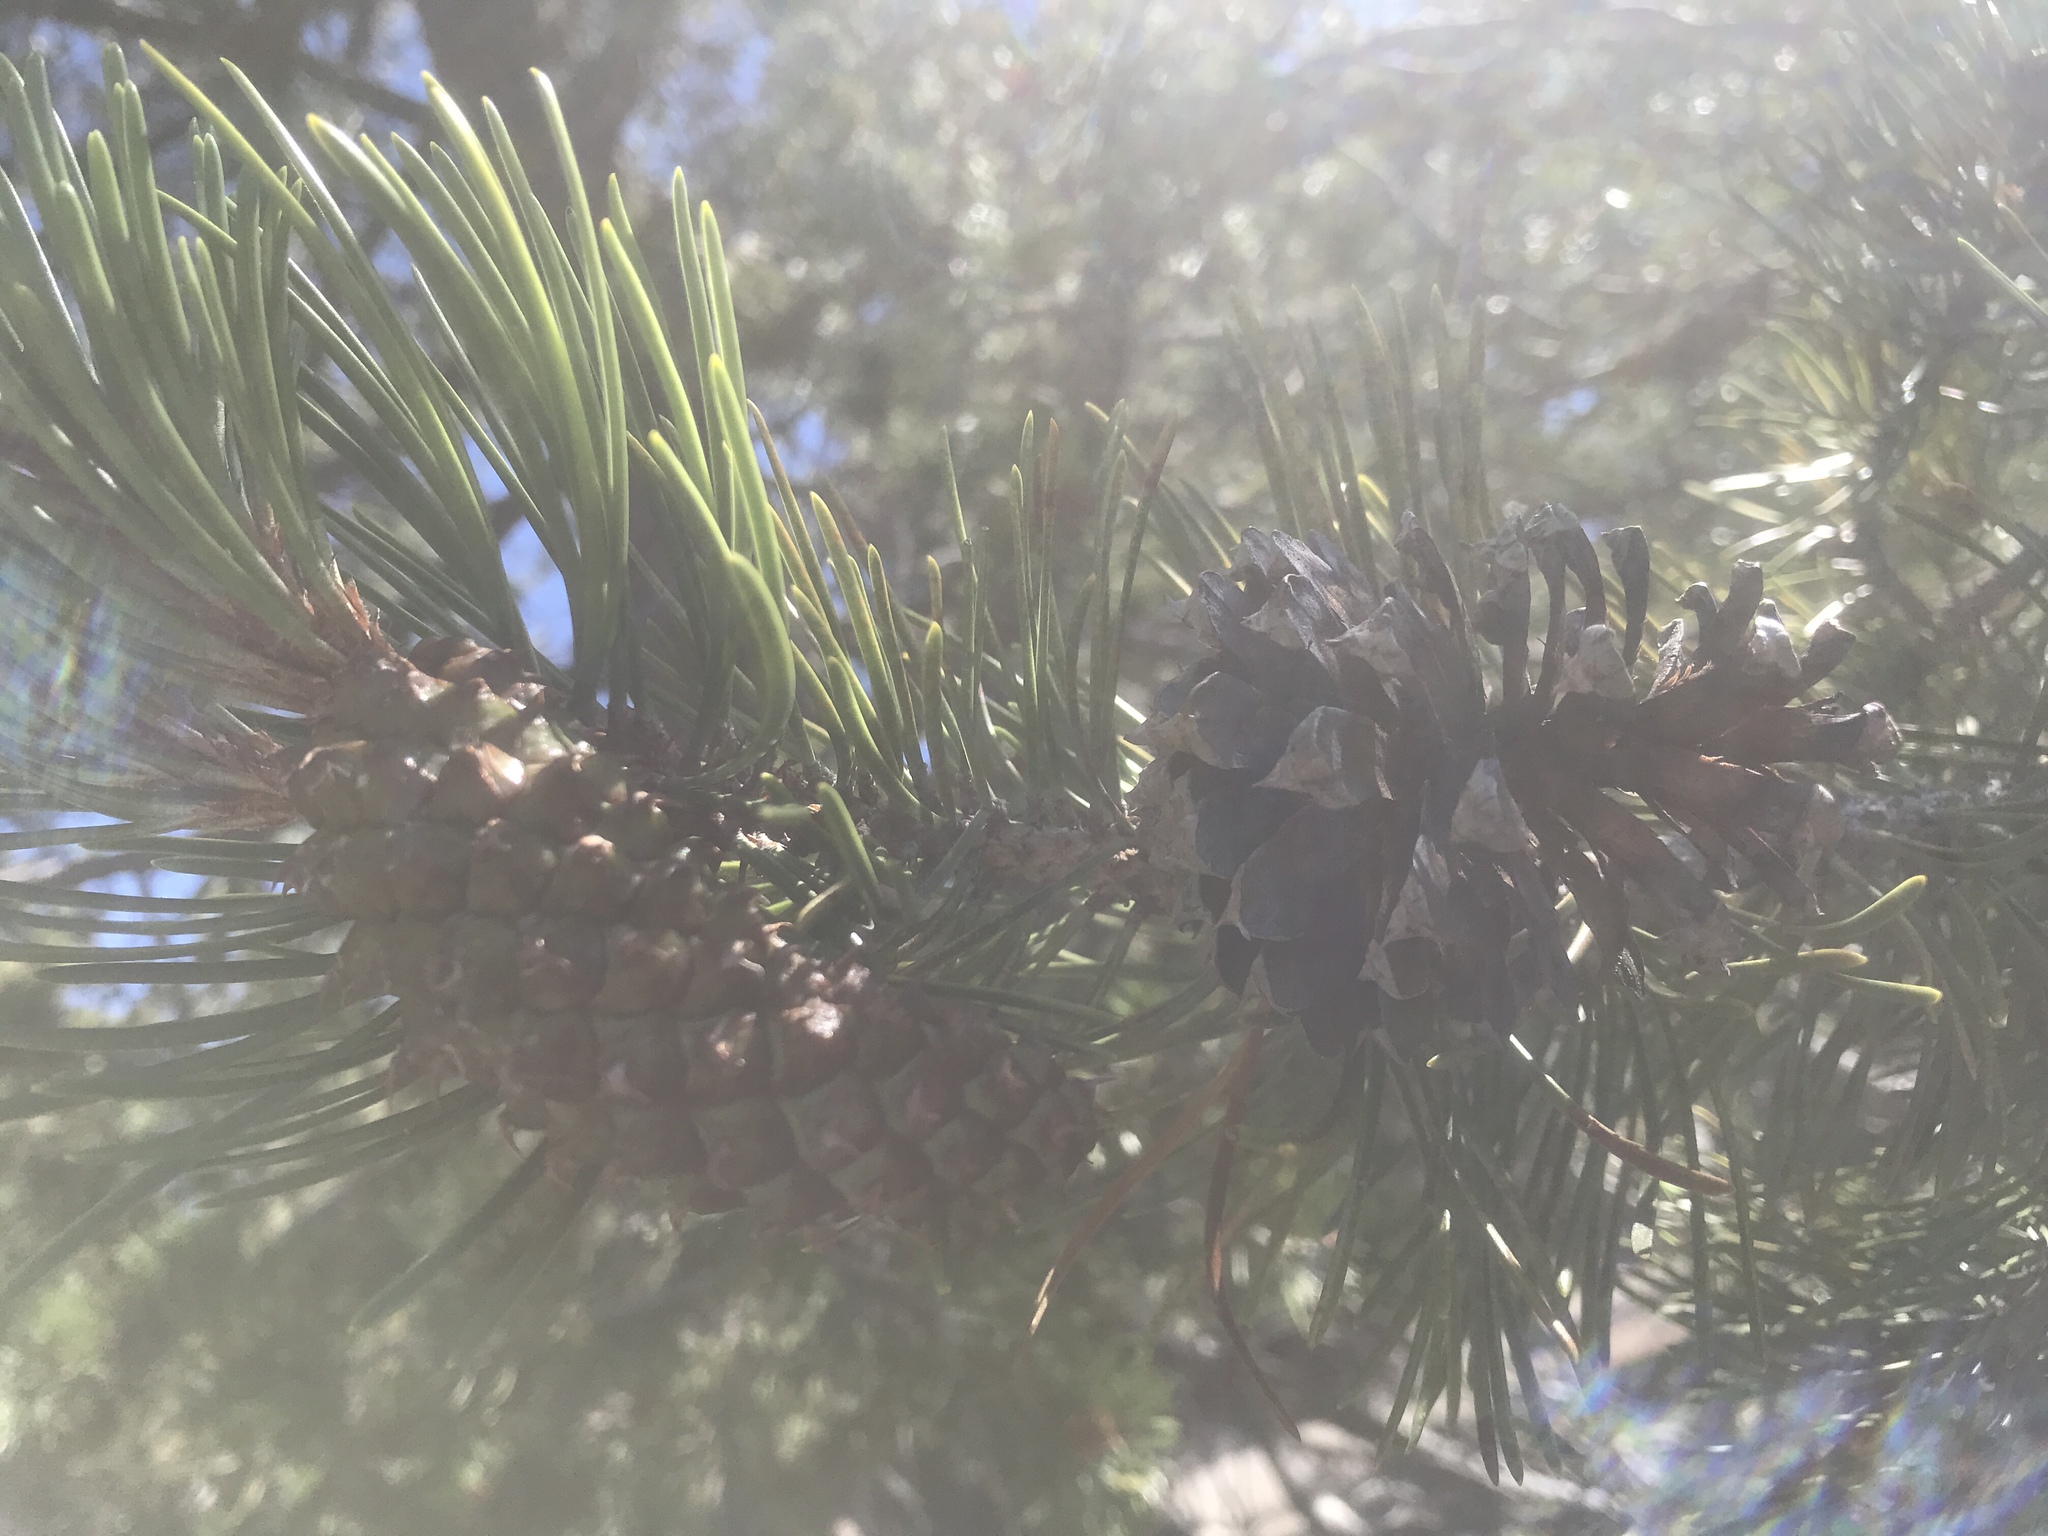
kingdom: Plantae
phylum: Tracheophyta
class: Pinopsida
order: Pinales
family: Pinaceae
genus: Pinus
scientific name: Pinus contorta
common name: Lodgepole pine
